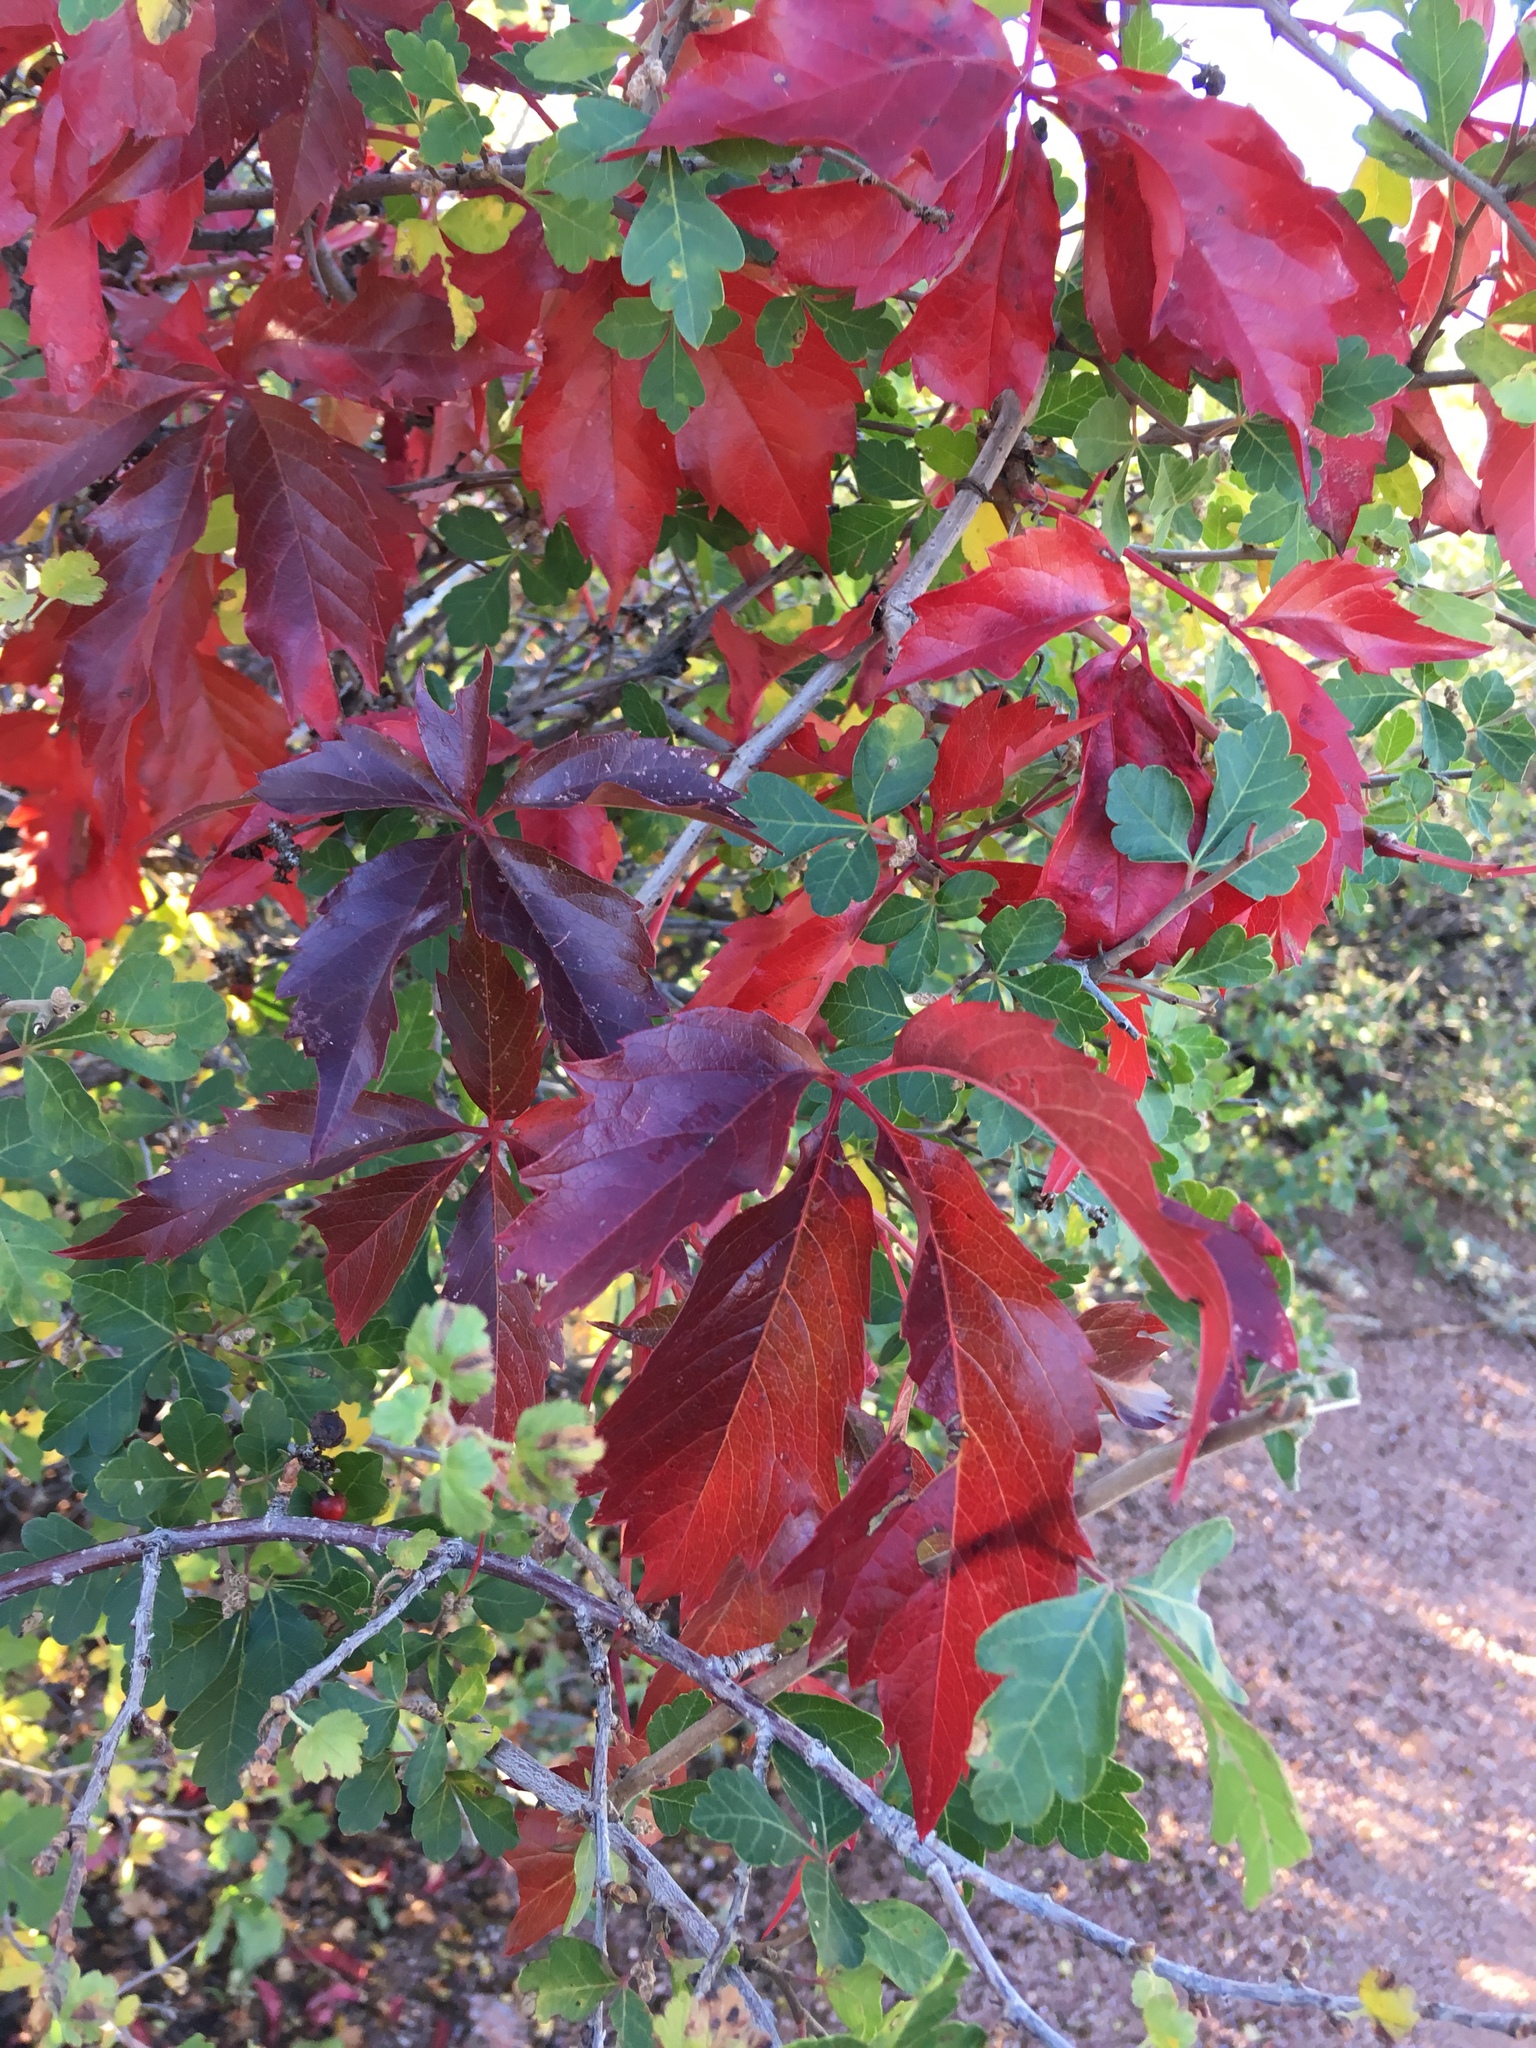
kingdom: Plantae
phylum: Tracheophyta
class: Magnoliopsida
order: Vitales
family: Vitaceae
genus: Parthenocissus
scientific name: Parthenocissus quinquefolia
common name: Virginia-creeper
